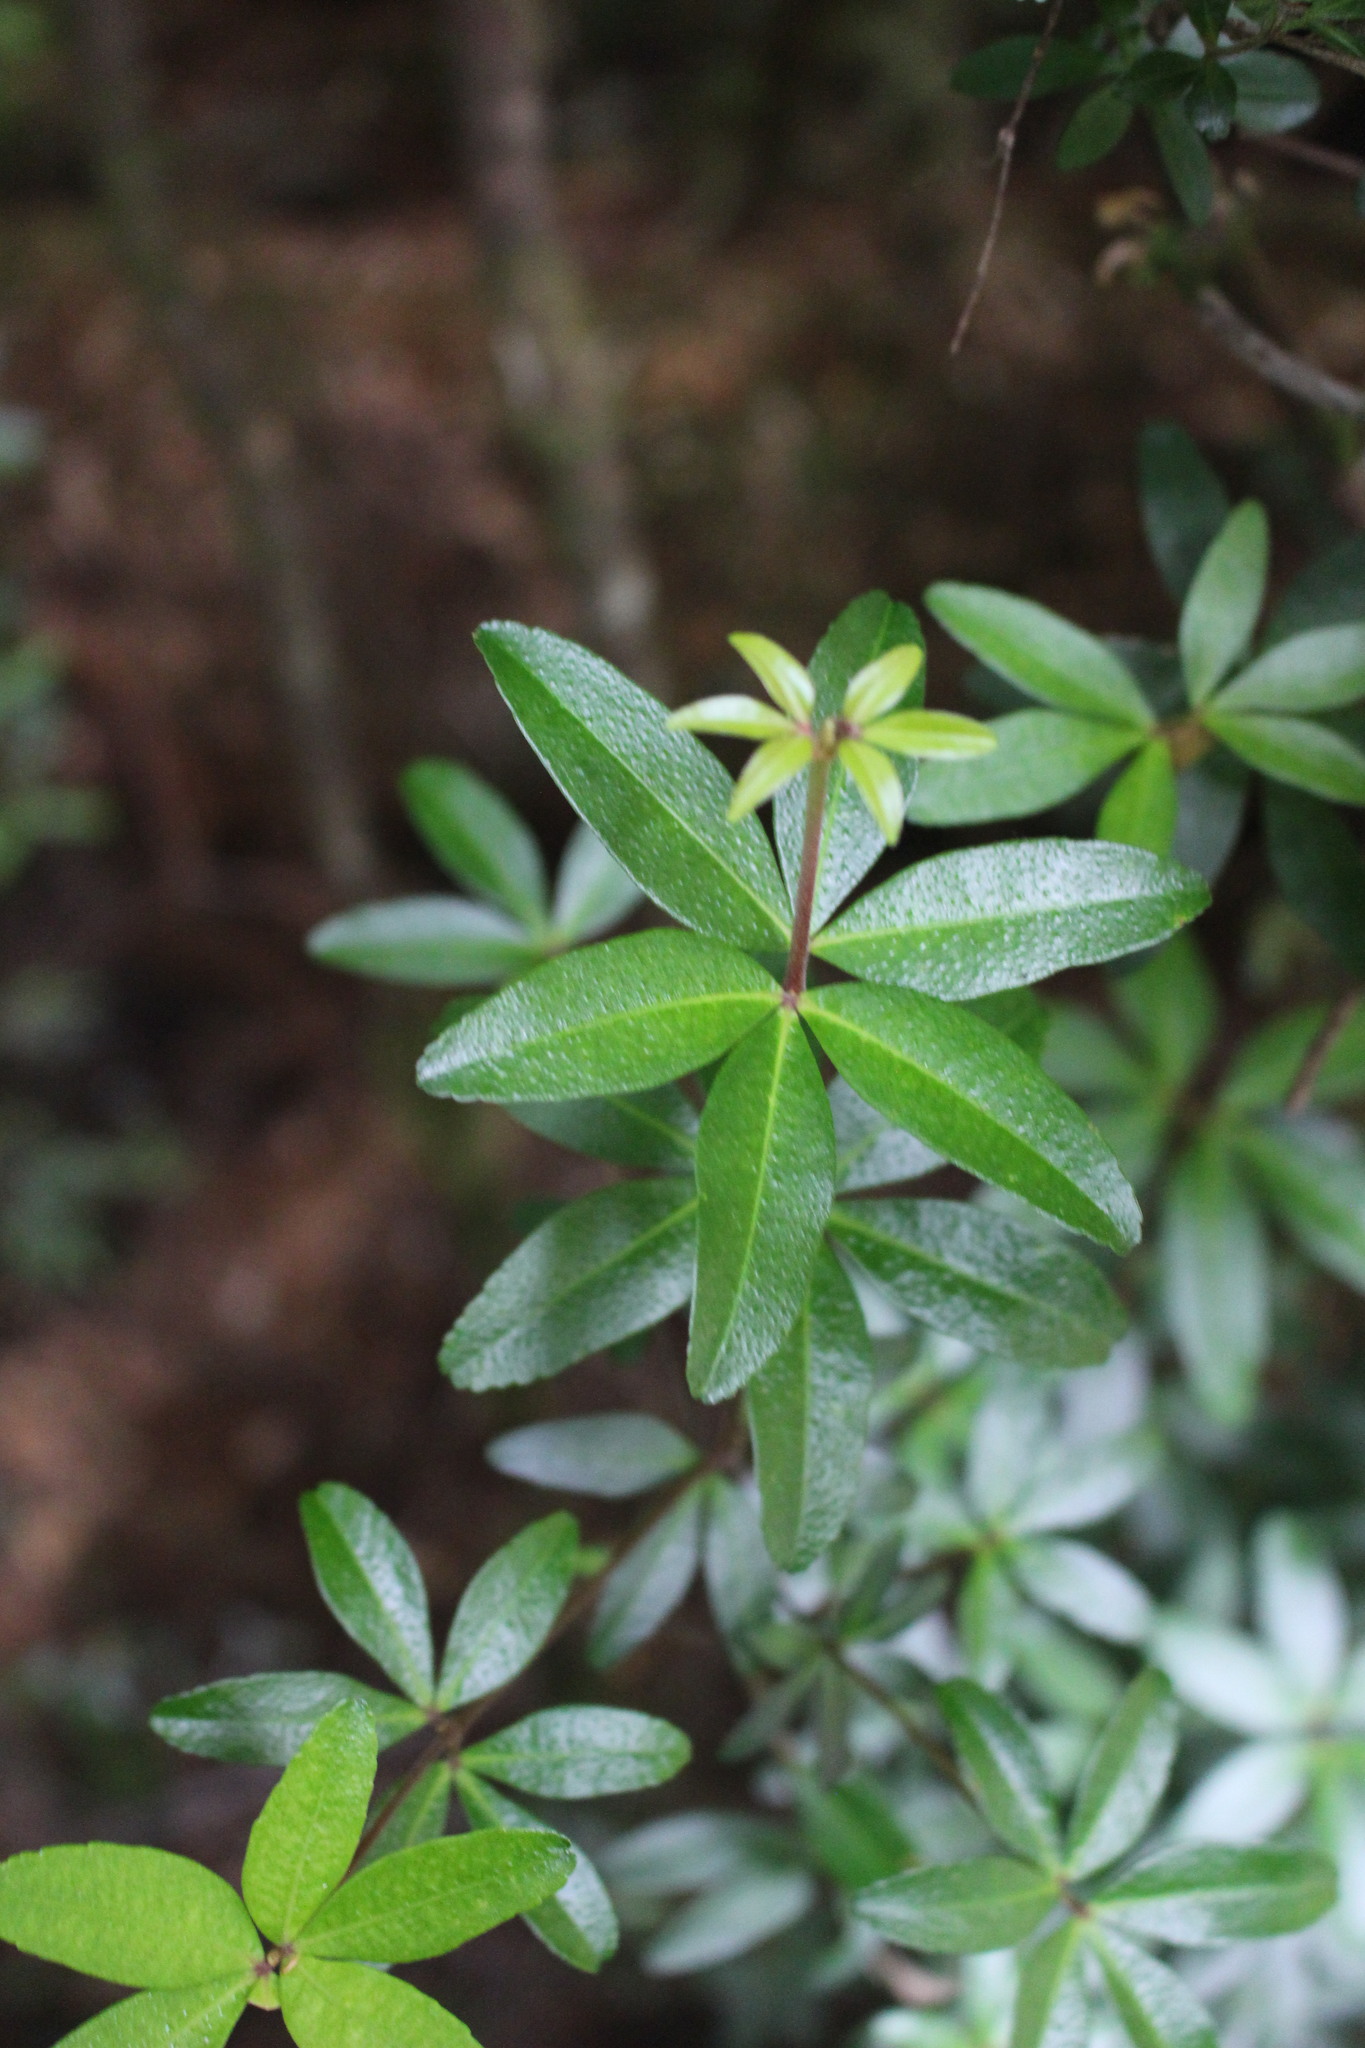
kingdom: Plantae
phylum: Tracheophyta
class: Magnoliopsida
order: Sapindales
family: Rutaceae
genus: Acradenia
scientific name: Acradenia frankliniae
